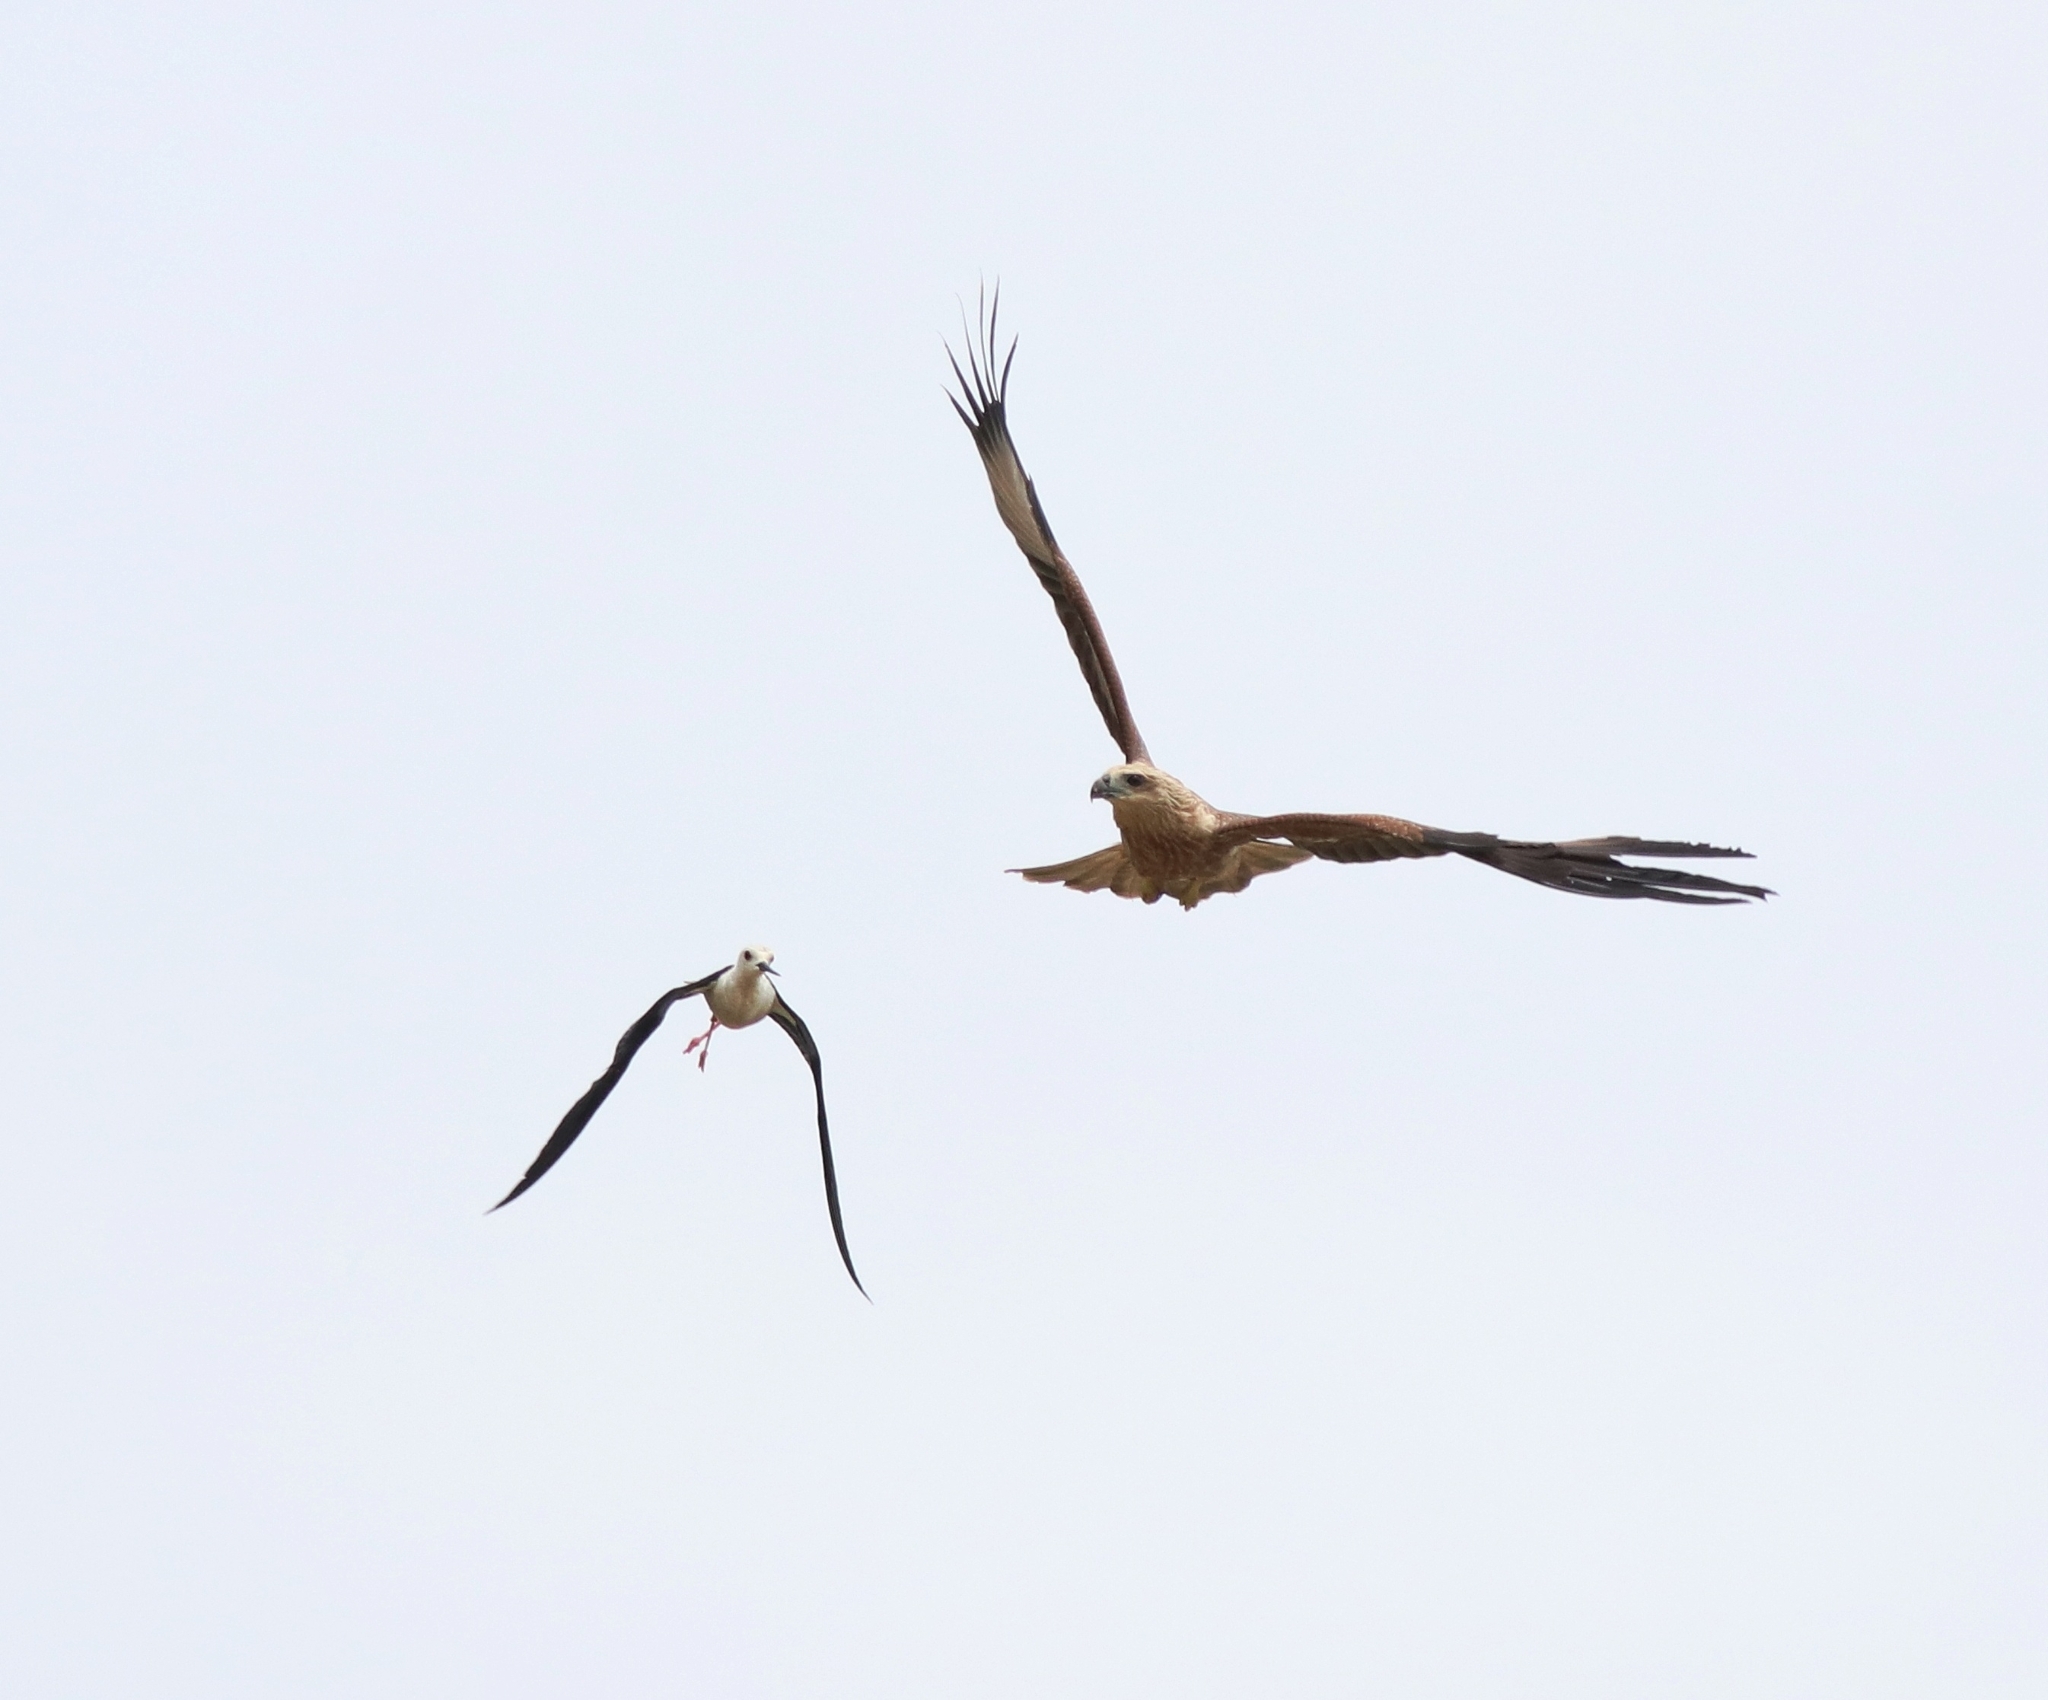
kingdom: Animalia
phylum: Chordata
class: Aves
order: Accipitriformes
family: Accipitridae
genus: Haliastur
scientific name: Haliastur indus
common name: Brahminy kite
